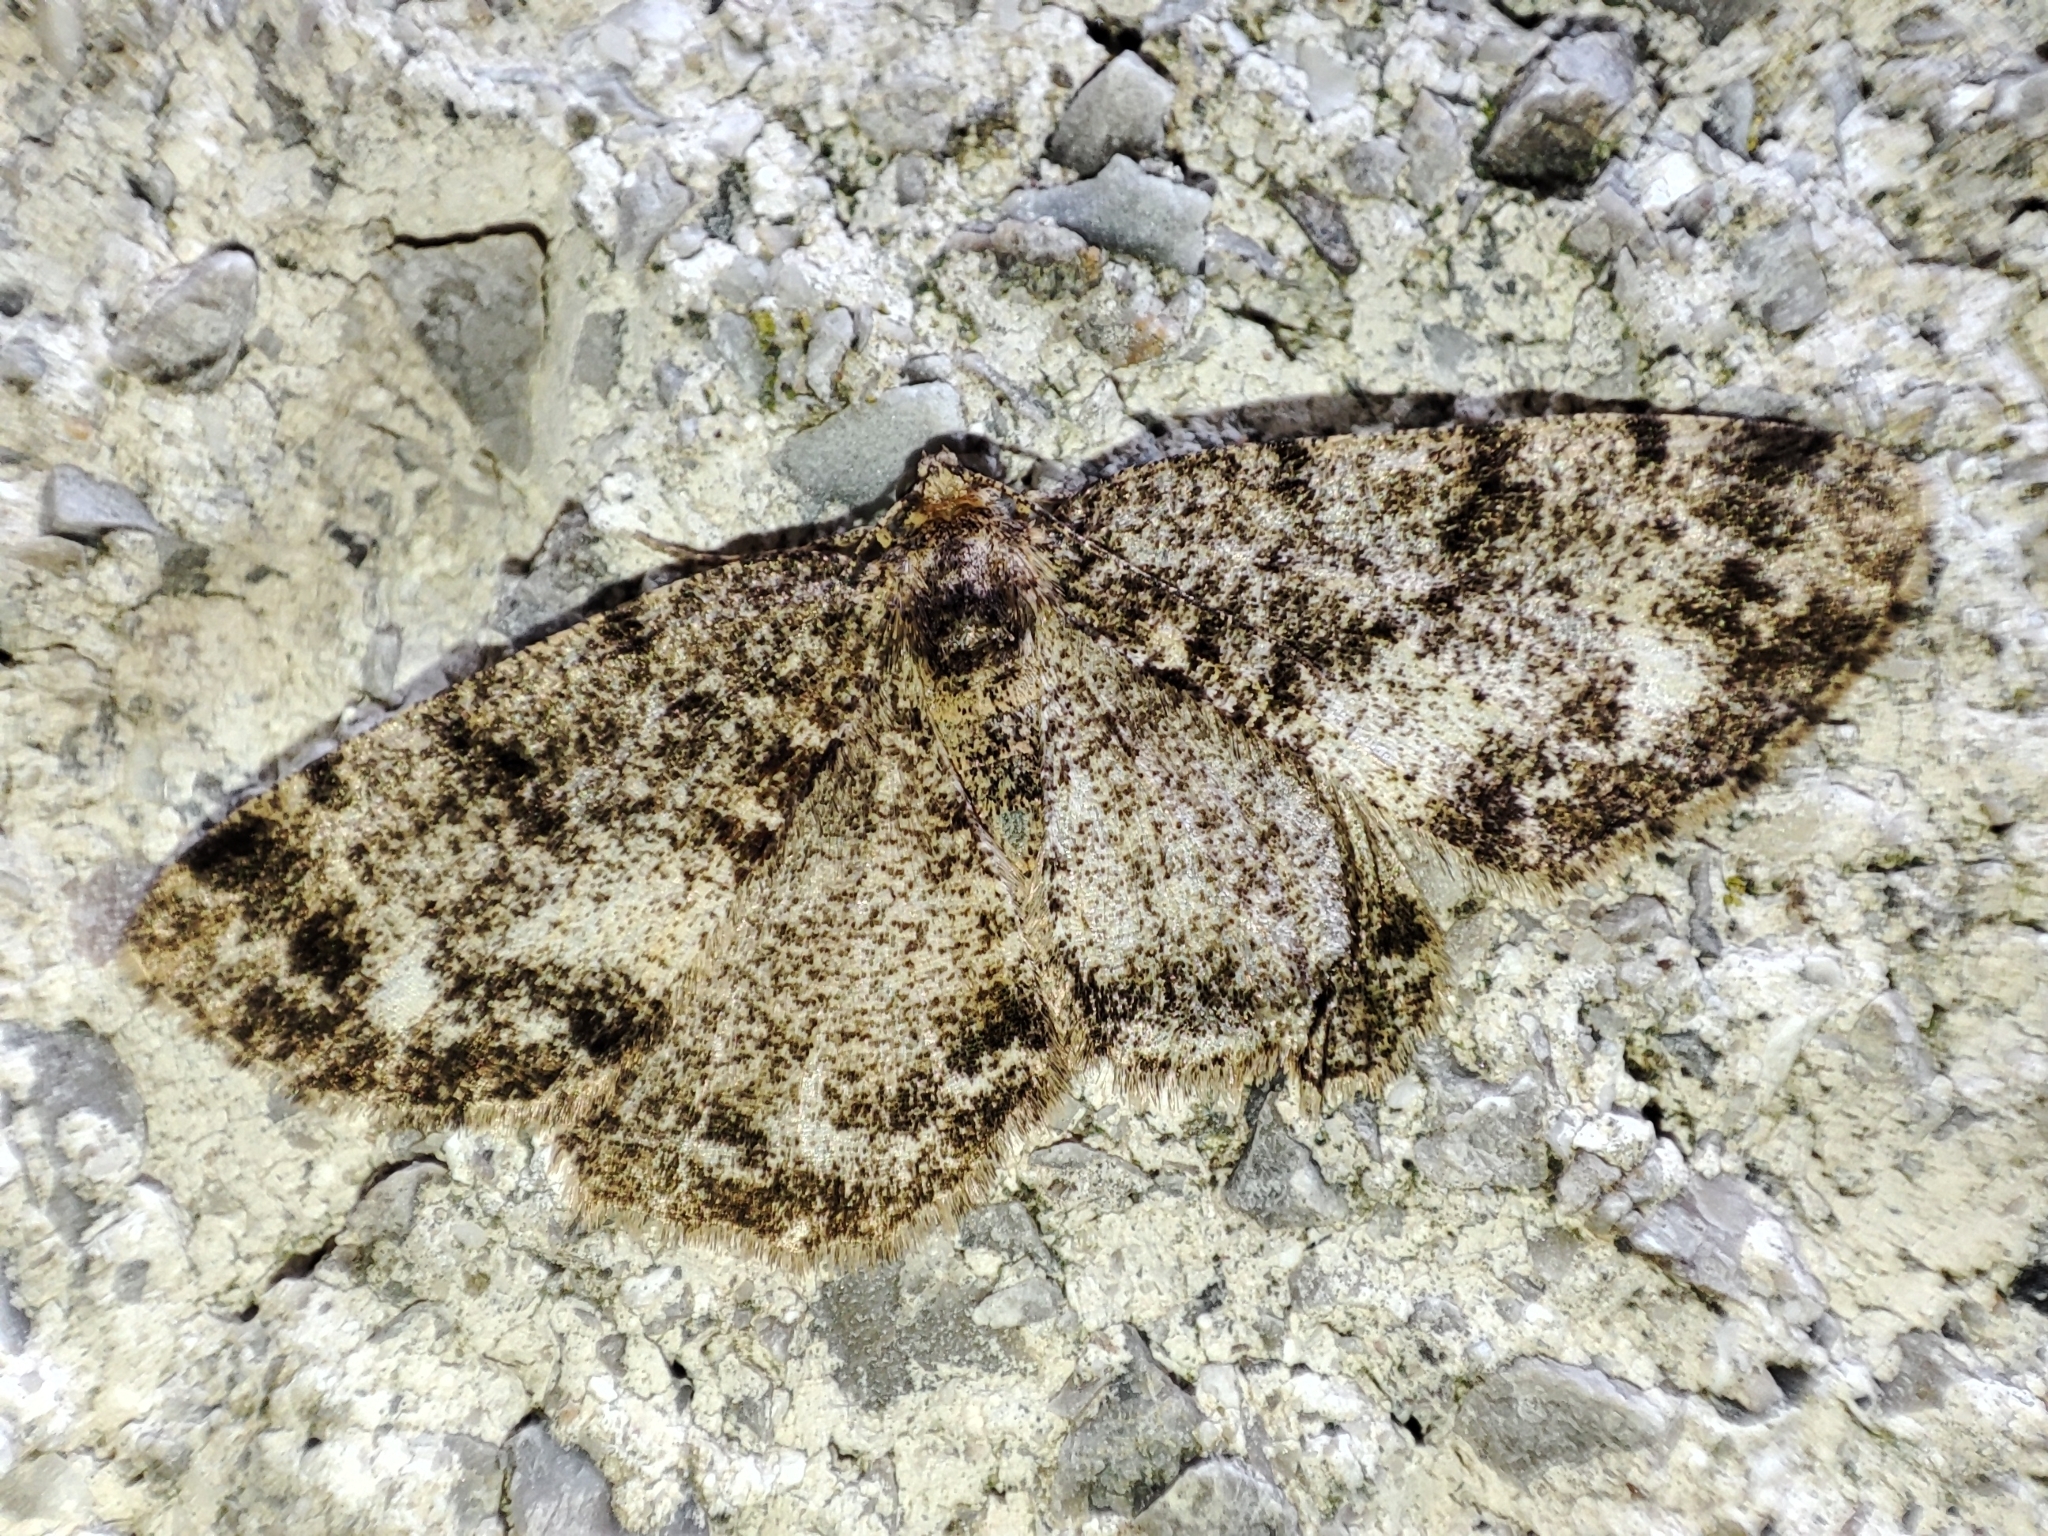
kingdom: Animalia
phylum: Arthropoda
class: Insecta
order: Lepidoptera
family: Geometridae
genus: Parectropis
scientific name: Parectropis similaria
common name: Brindled white-spot
